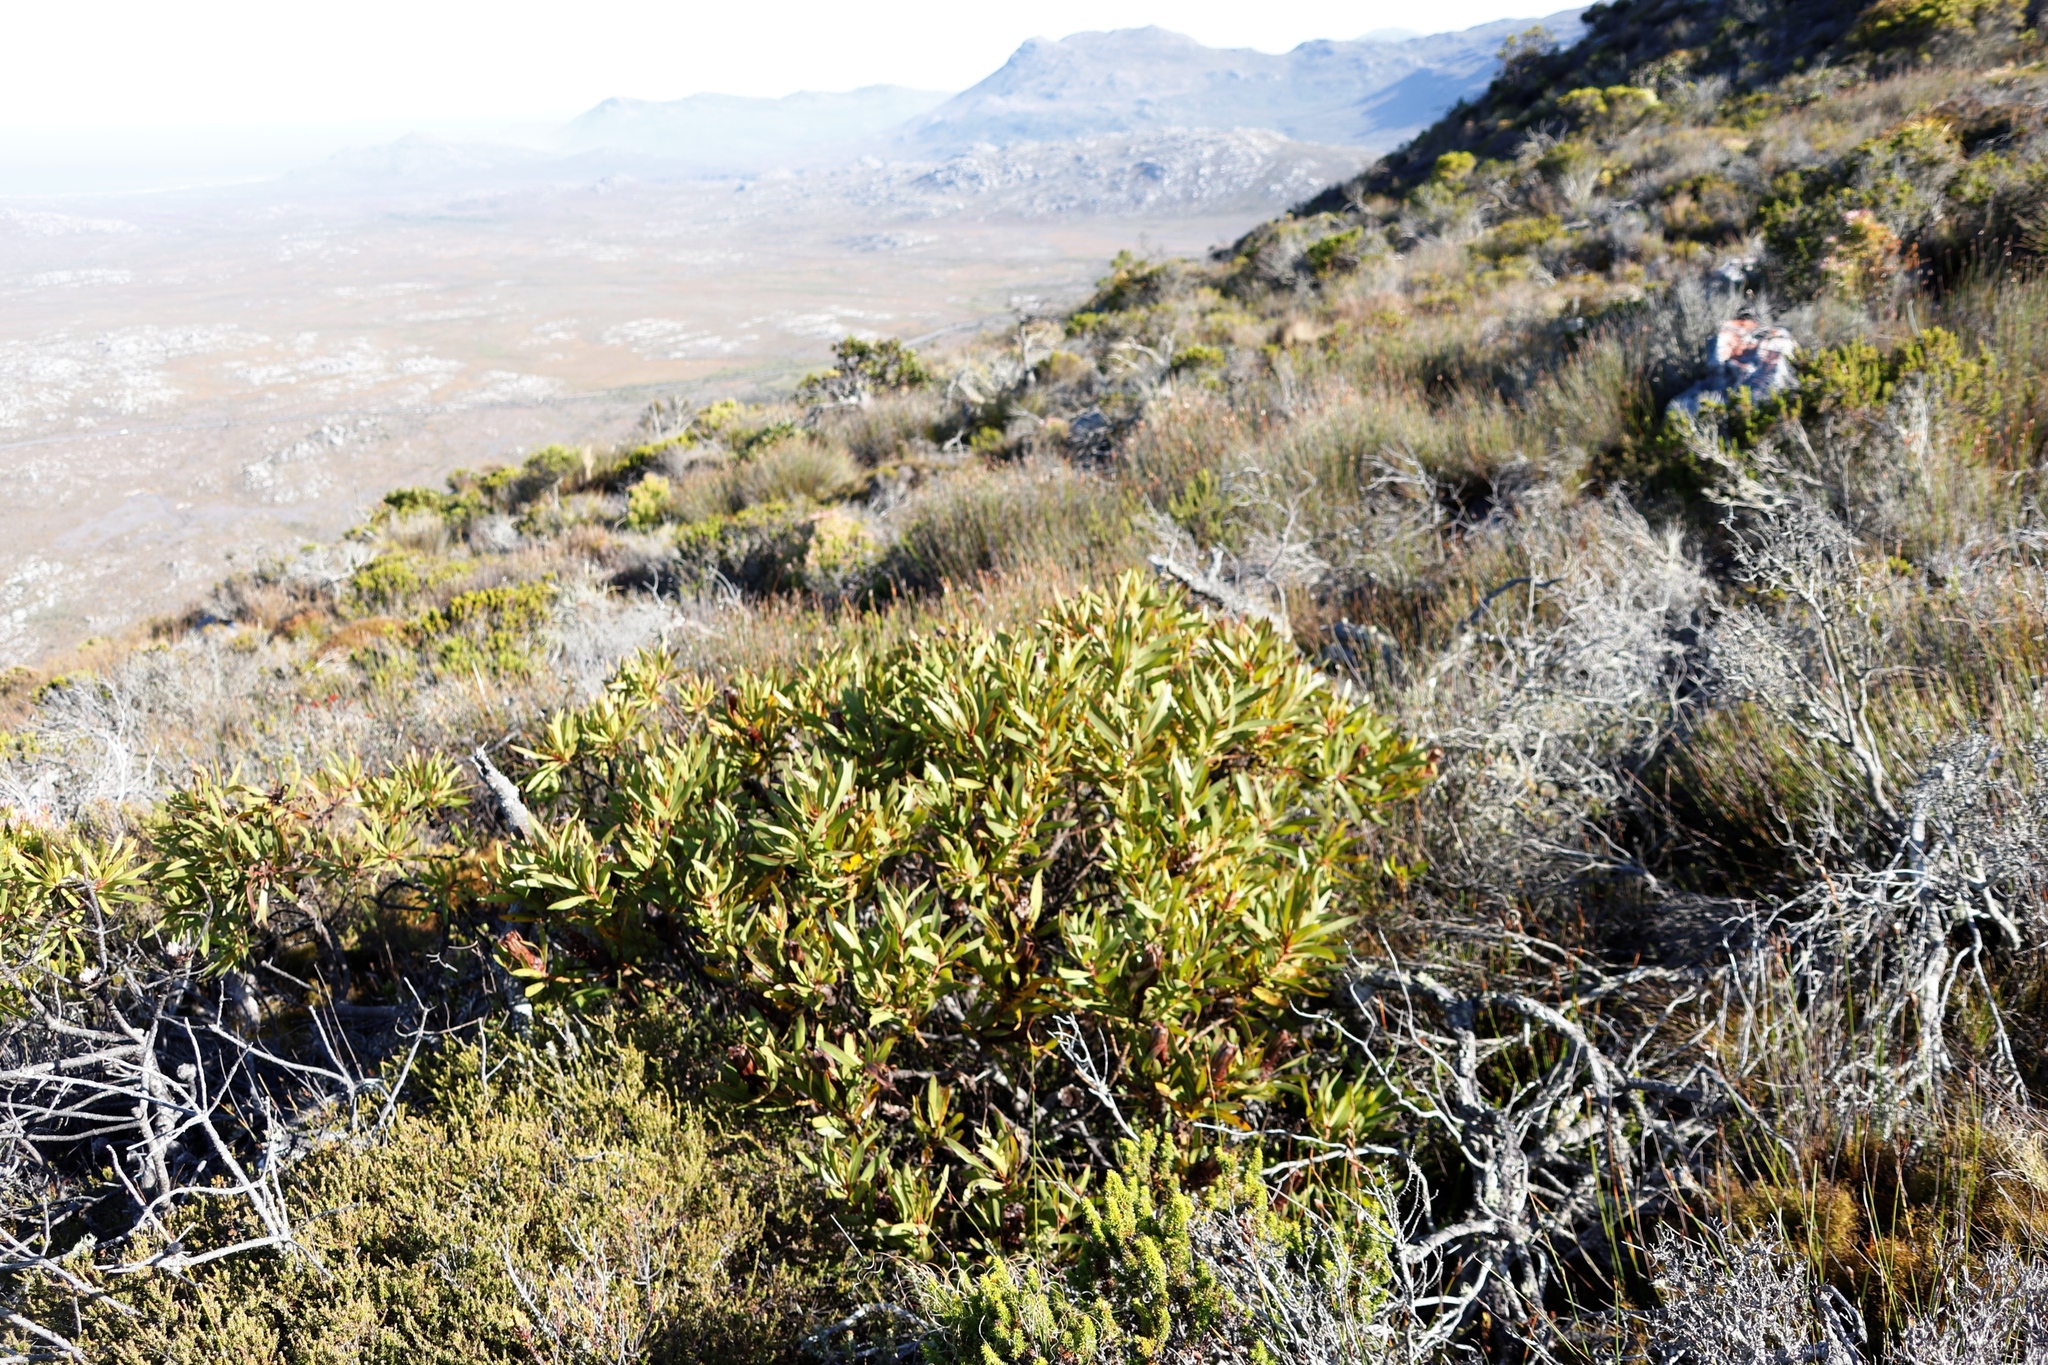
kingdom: Plantae
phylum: Tracheophyta
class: Magnoliopsida
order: Proteales
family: Proteaceae
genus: Protea
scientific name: Protea lepidocarpodendron
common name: Black-bearded protea
